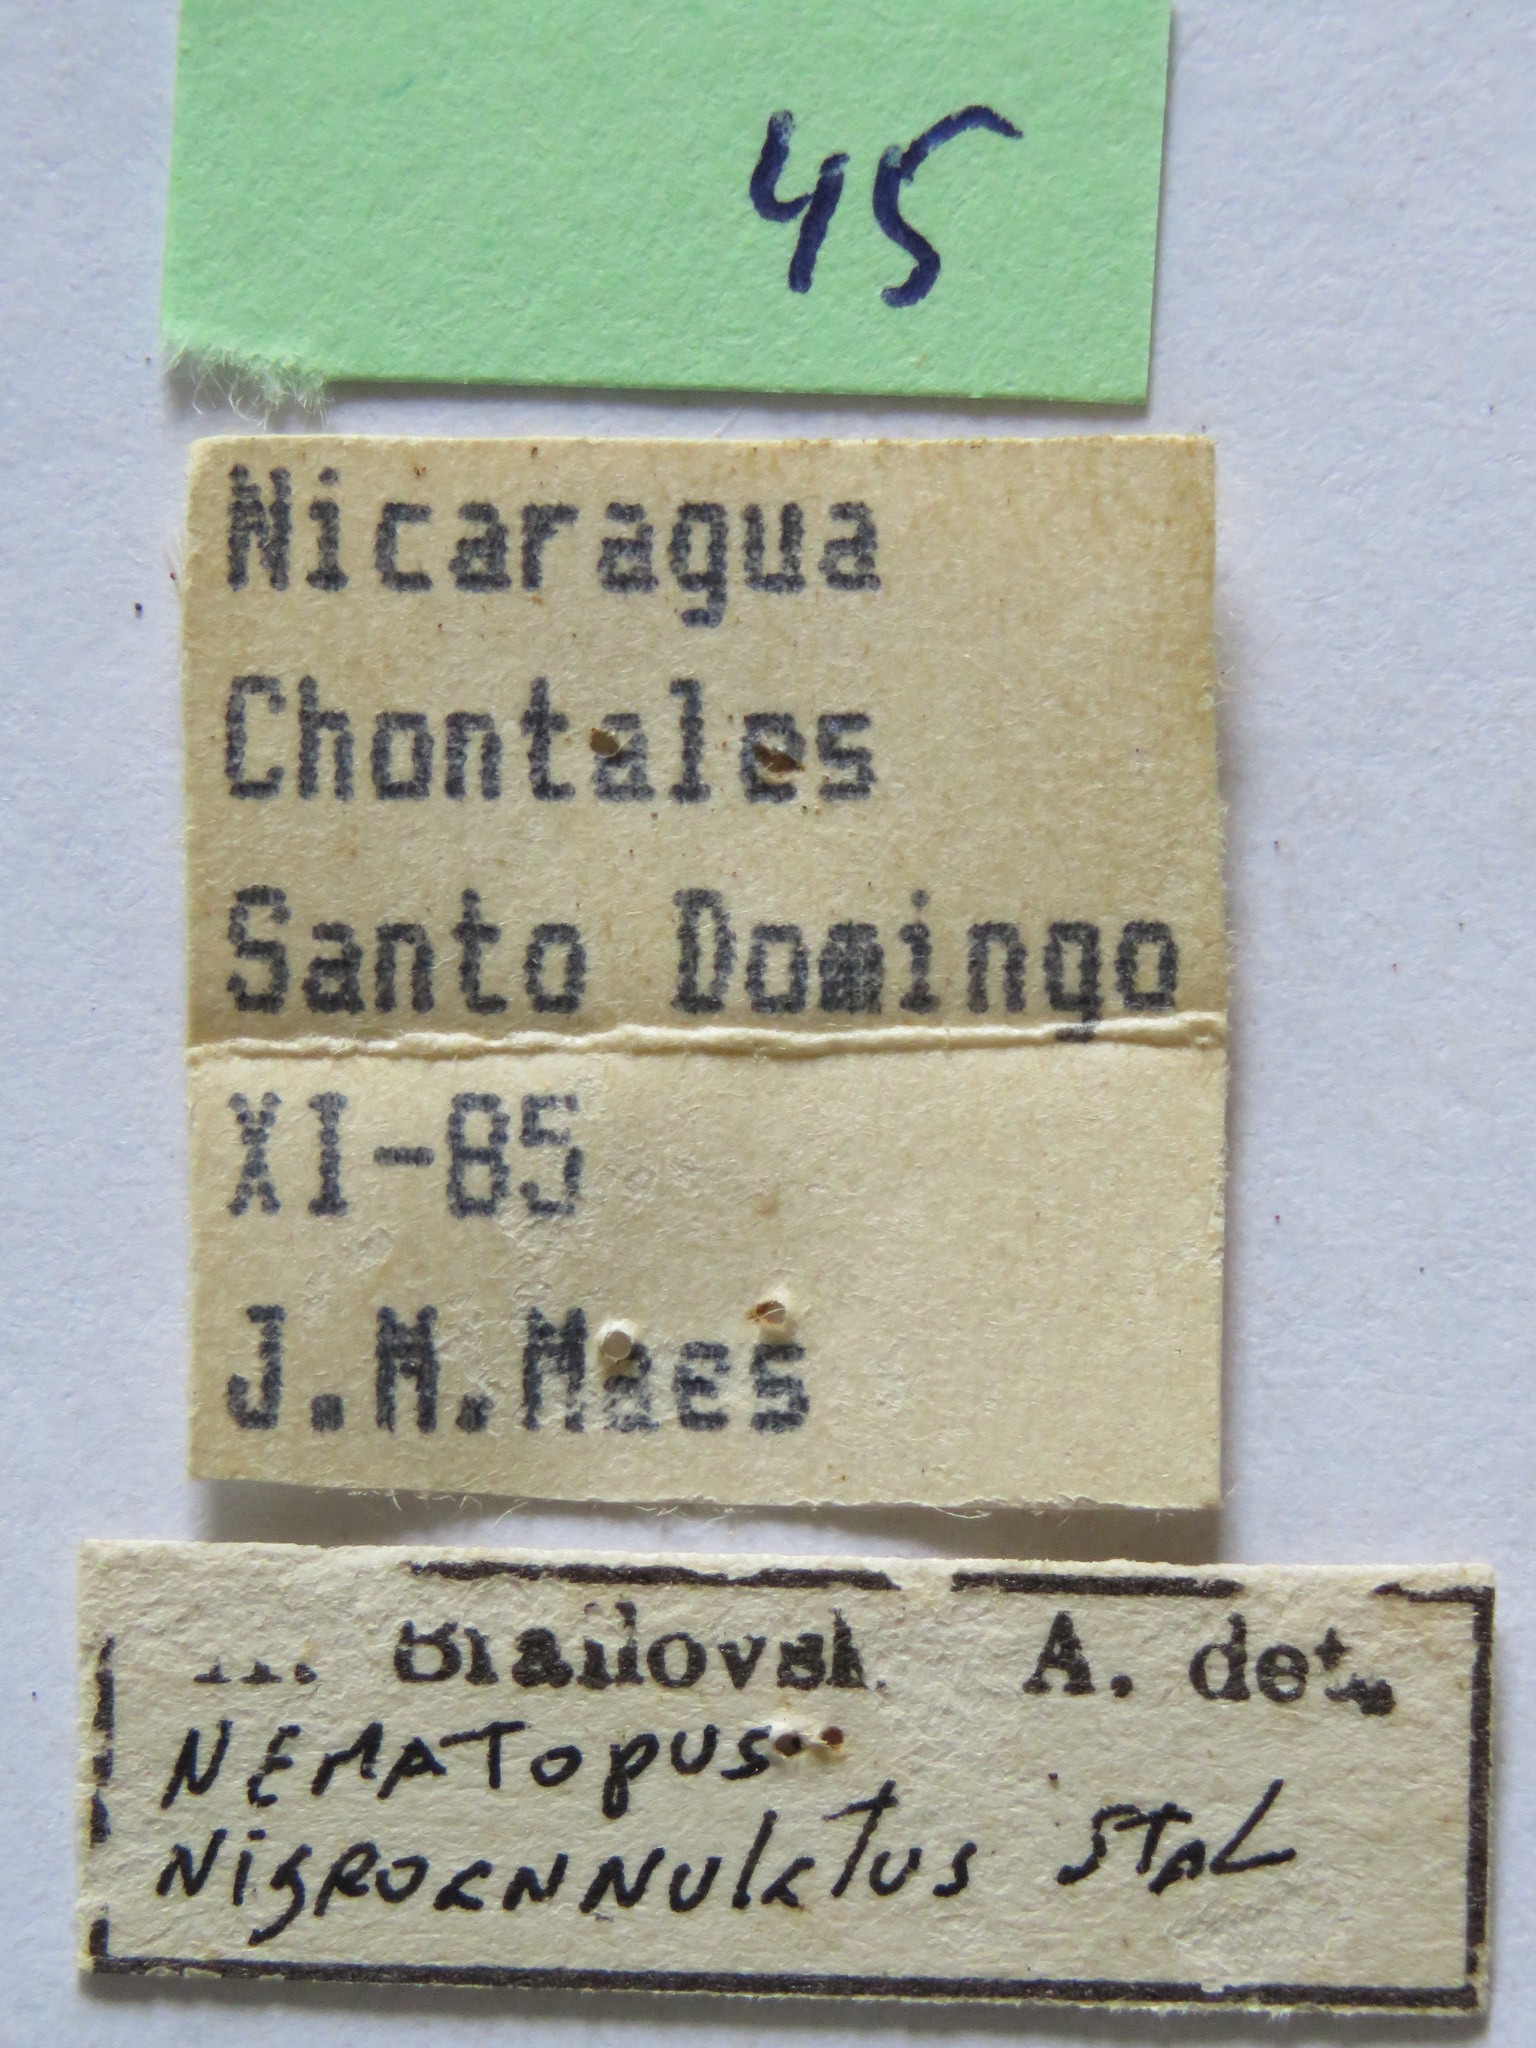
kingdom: Animalia
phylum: Arthropoda
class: Insecta
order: Hemiptera
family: Coreidae
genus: Nematopus
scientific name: Nematopus nigroannulatus
